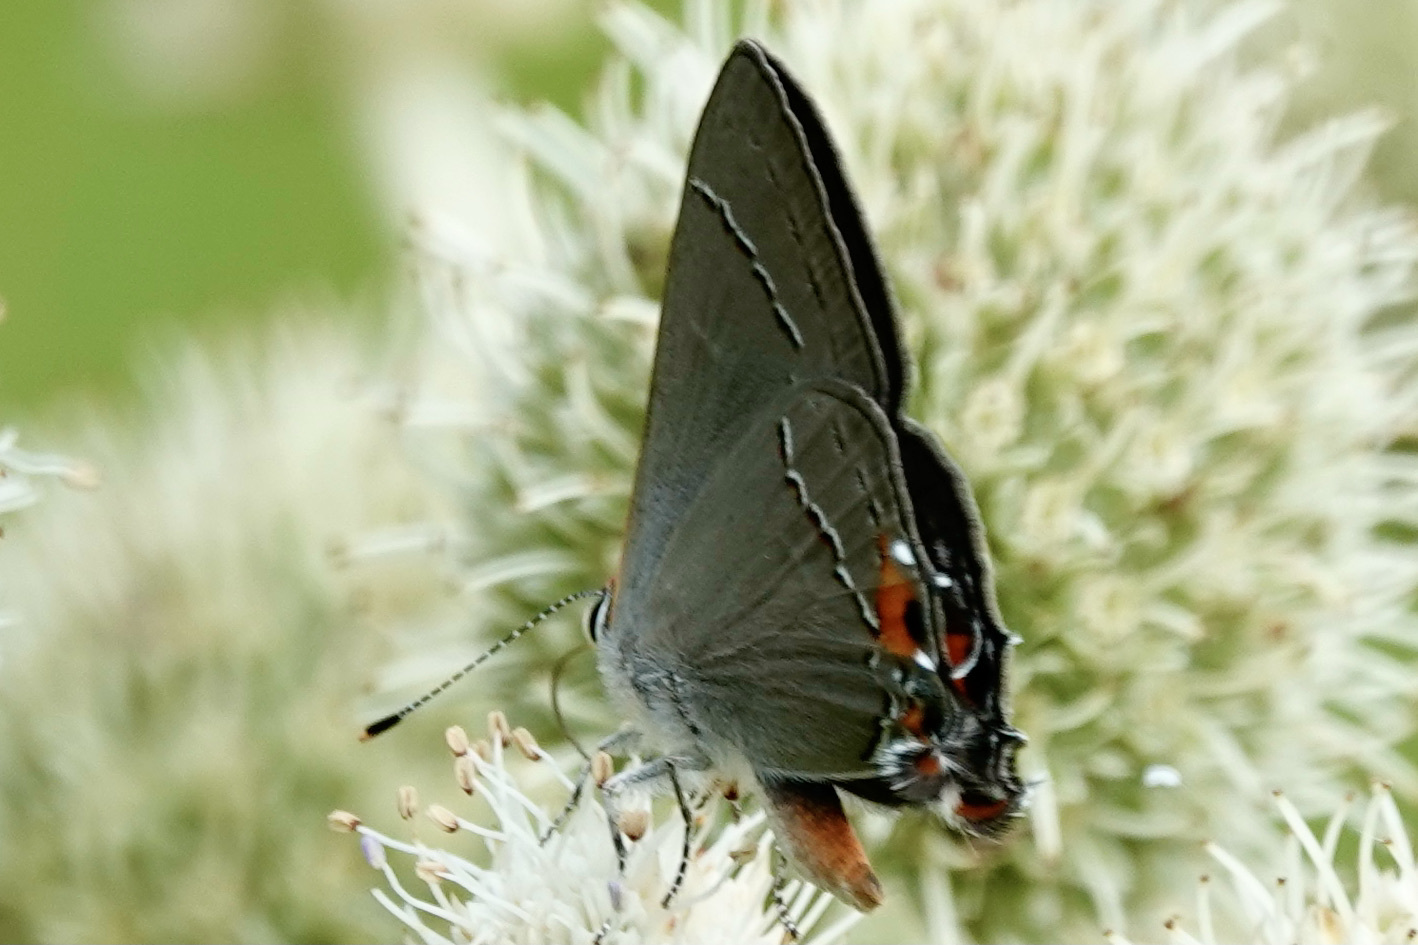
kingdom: Animalia
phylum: Arthropoda
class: Insecta
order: Lepidoptera
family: Lycaenidae
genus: Strymon
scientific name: Strymon melinus
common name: Gray hairstreak
